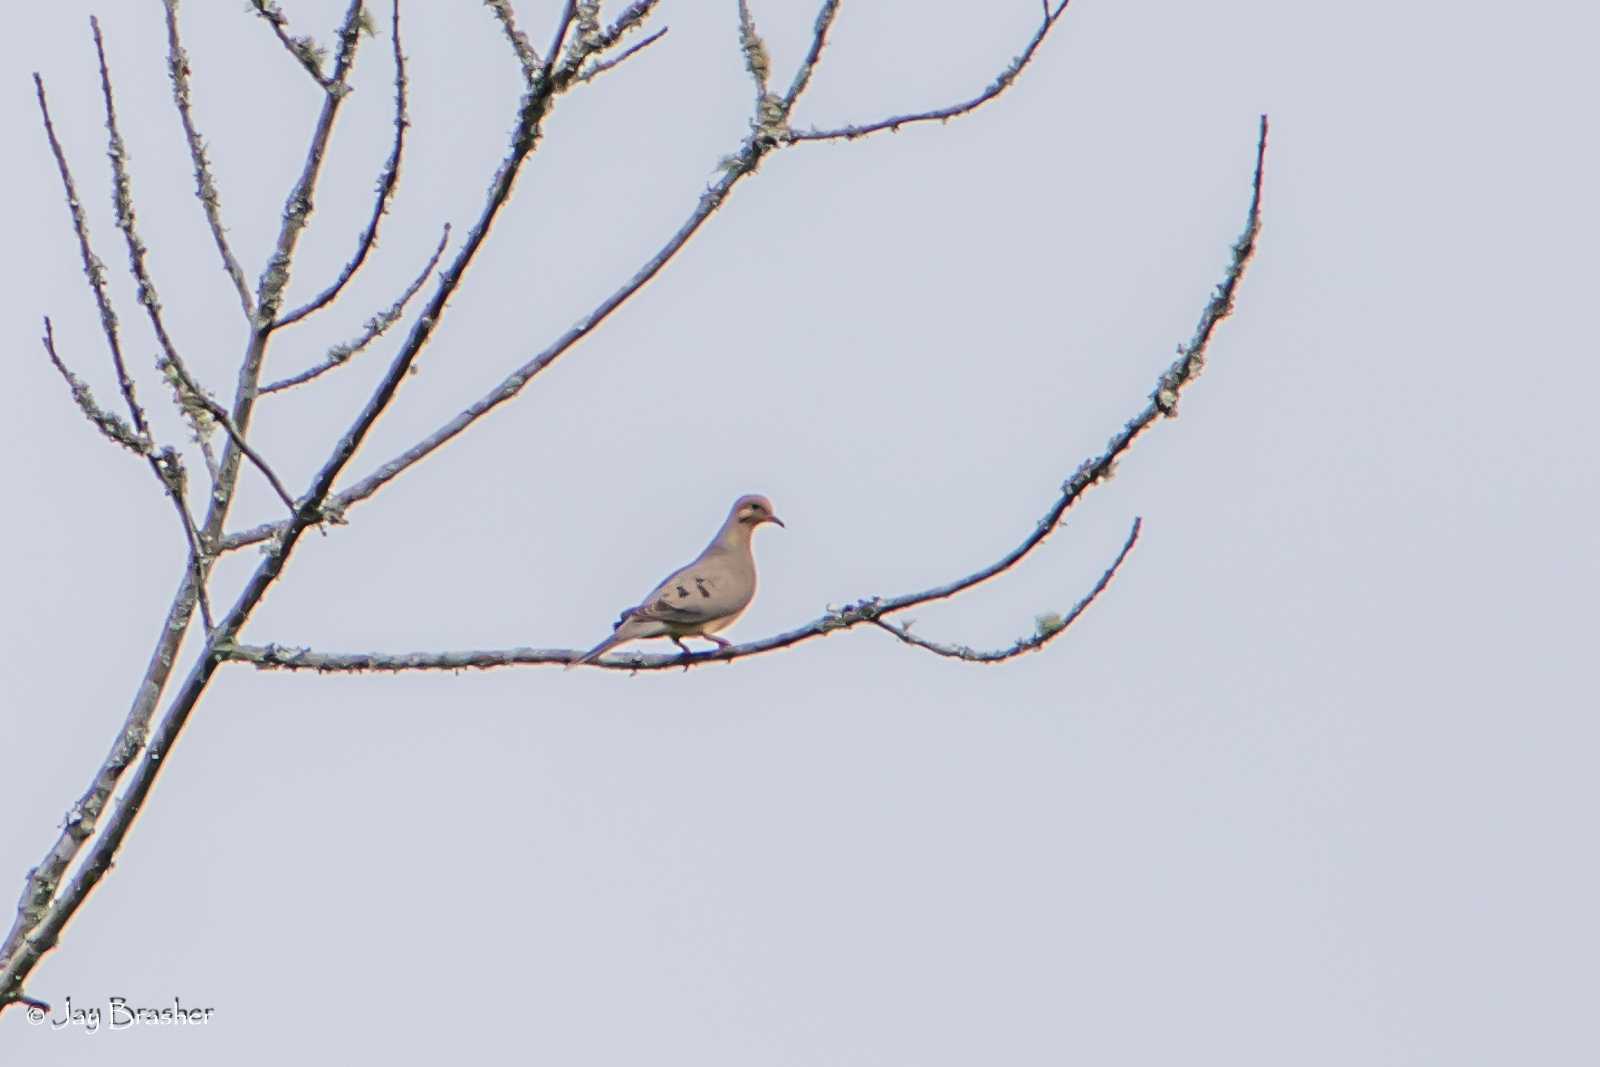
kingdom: Animalia
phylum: Chordata
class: Aves
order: Columbiformes
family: Columbidae
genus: Zenaida
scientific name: Zenaida macroura
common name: Mourning dove
